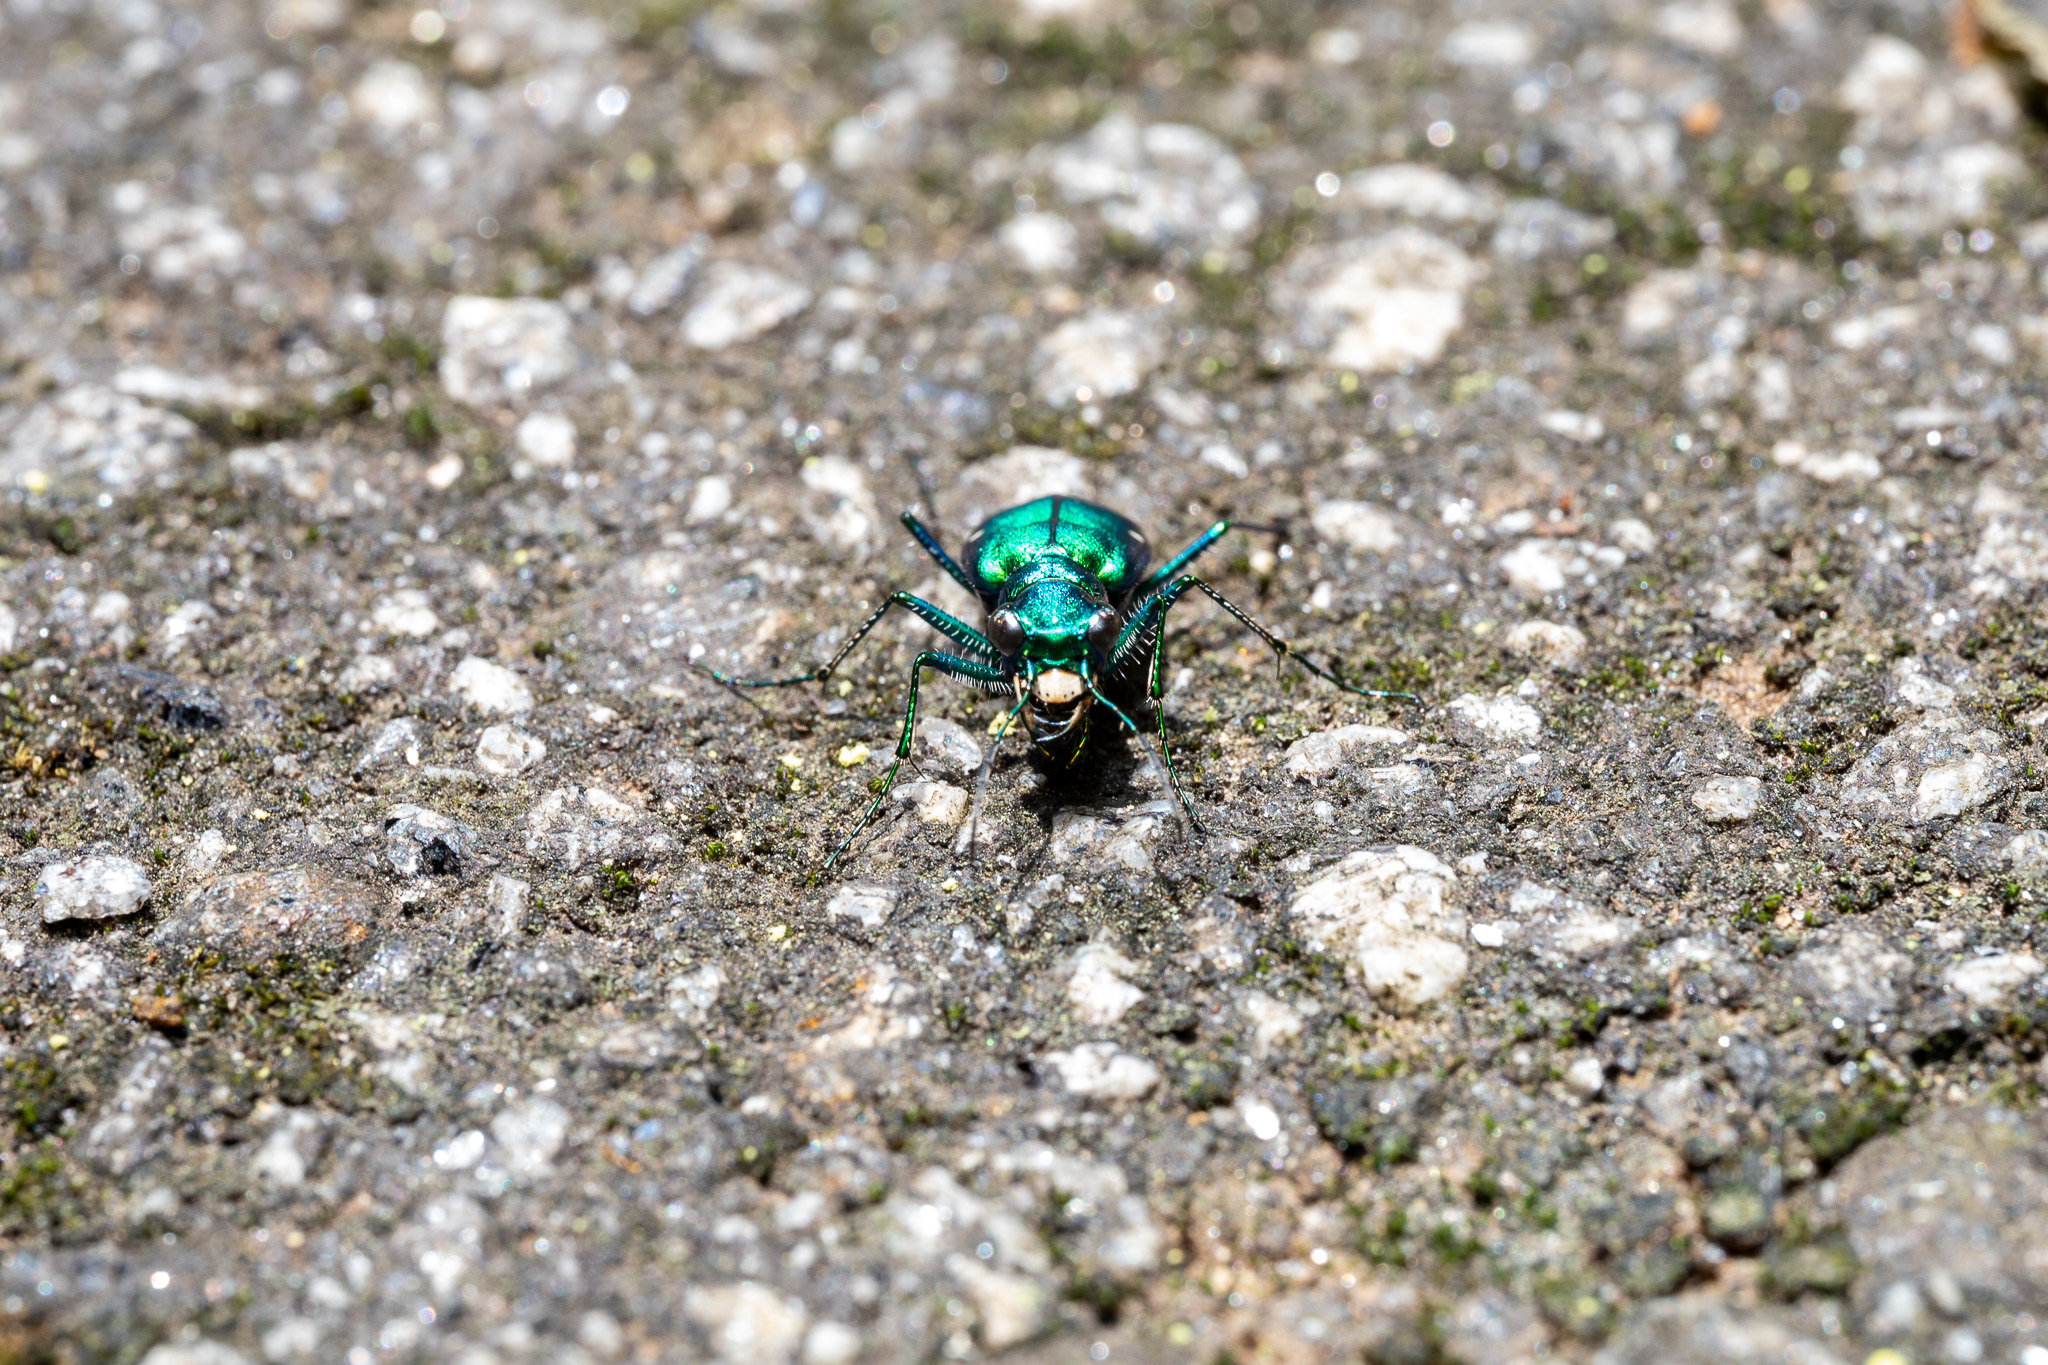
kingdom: Animalia
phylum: Arthropoda
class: Insecta
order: Coleoptera
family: Carabidae
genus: Cicindela
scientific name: Cicindela sexguttata
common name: Six-spotted tiger beetle
